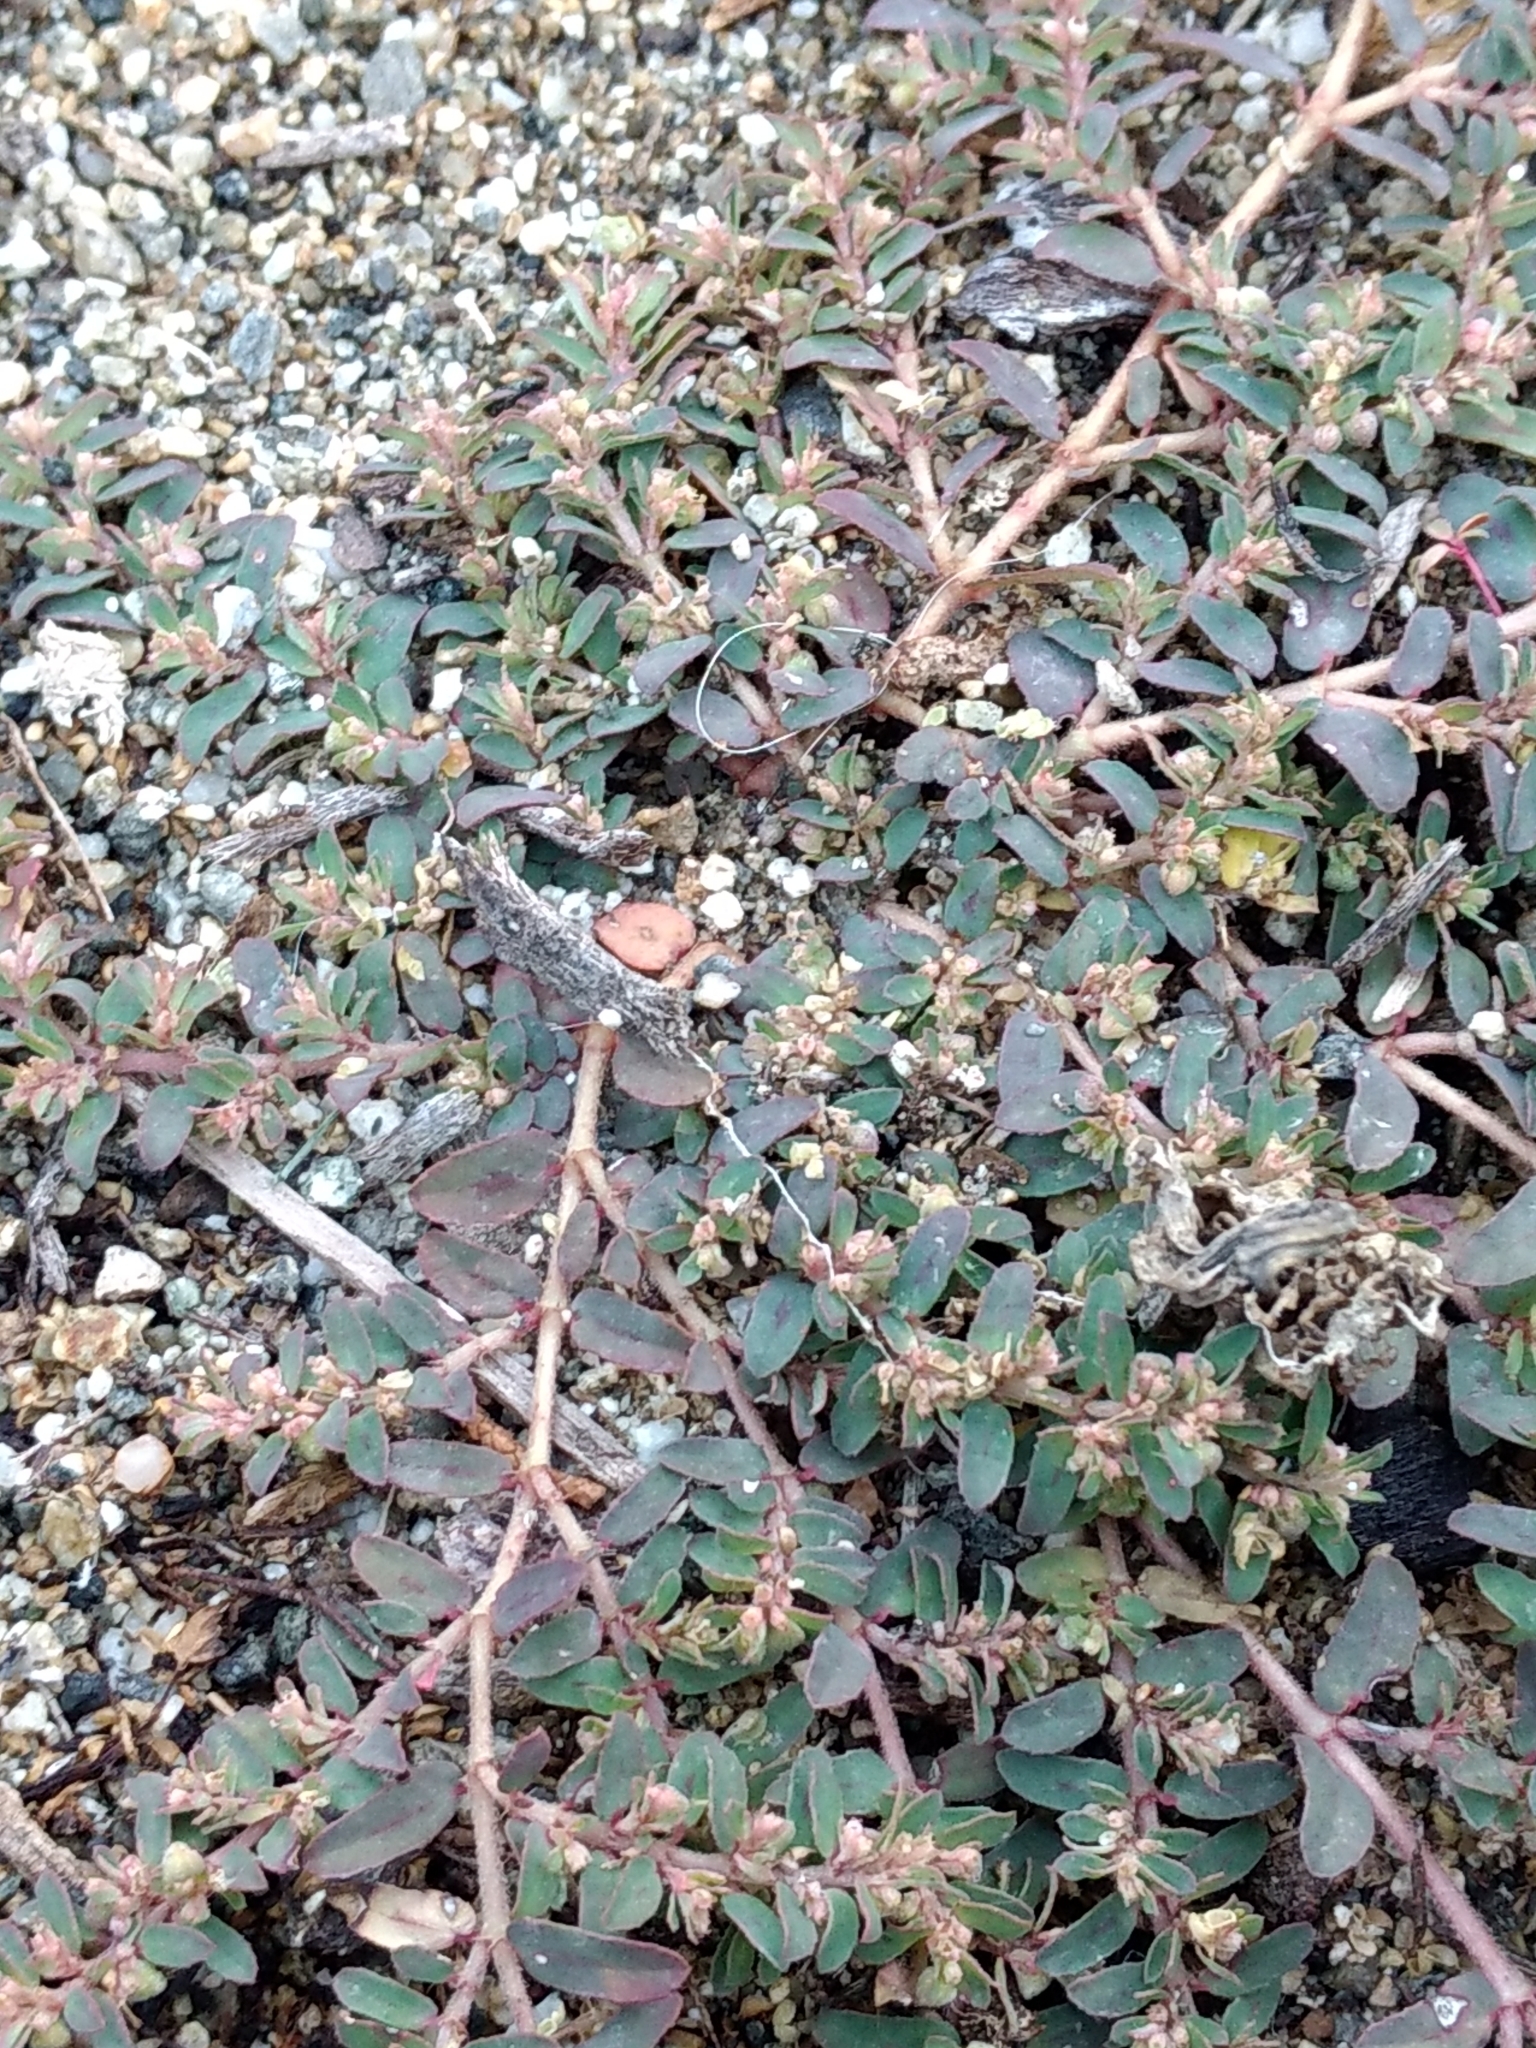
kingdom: Plantae
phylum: Tracheophyta
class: Magnoliopsida
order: Malpighiales
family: Euphorbiaceae
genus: Euphorbia
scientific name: Euphorbia maculata
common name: Spotted spurge
